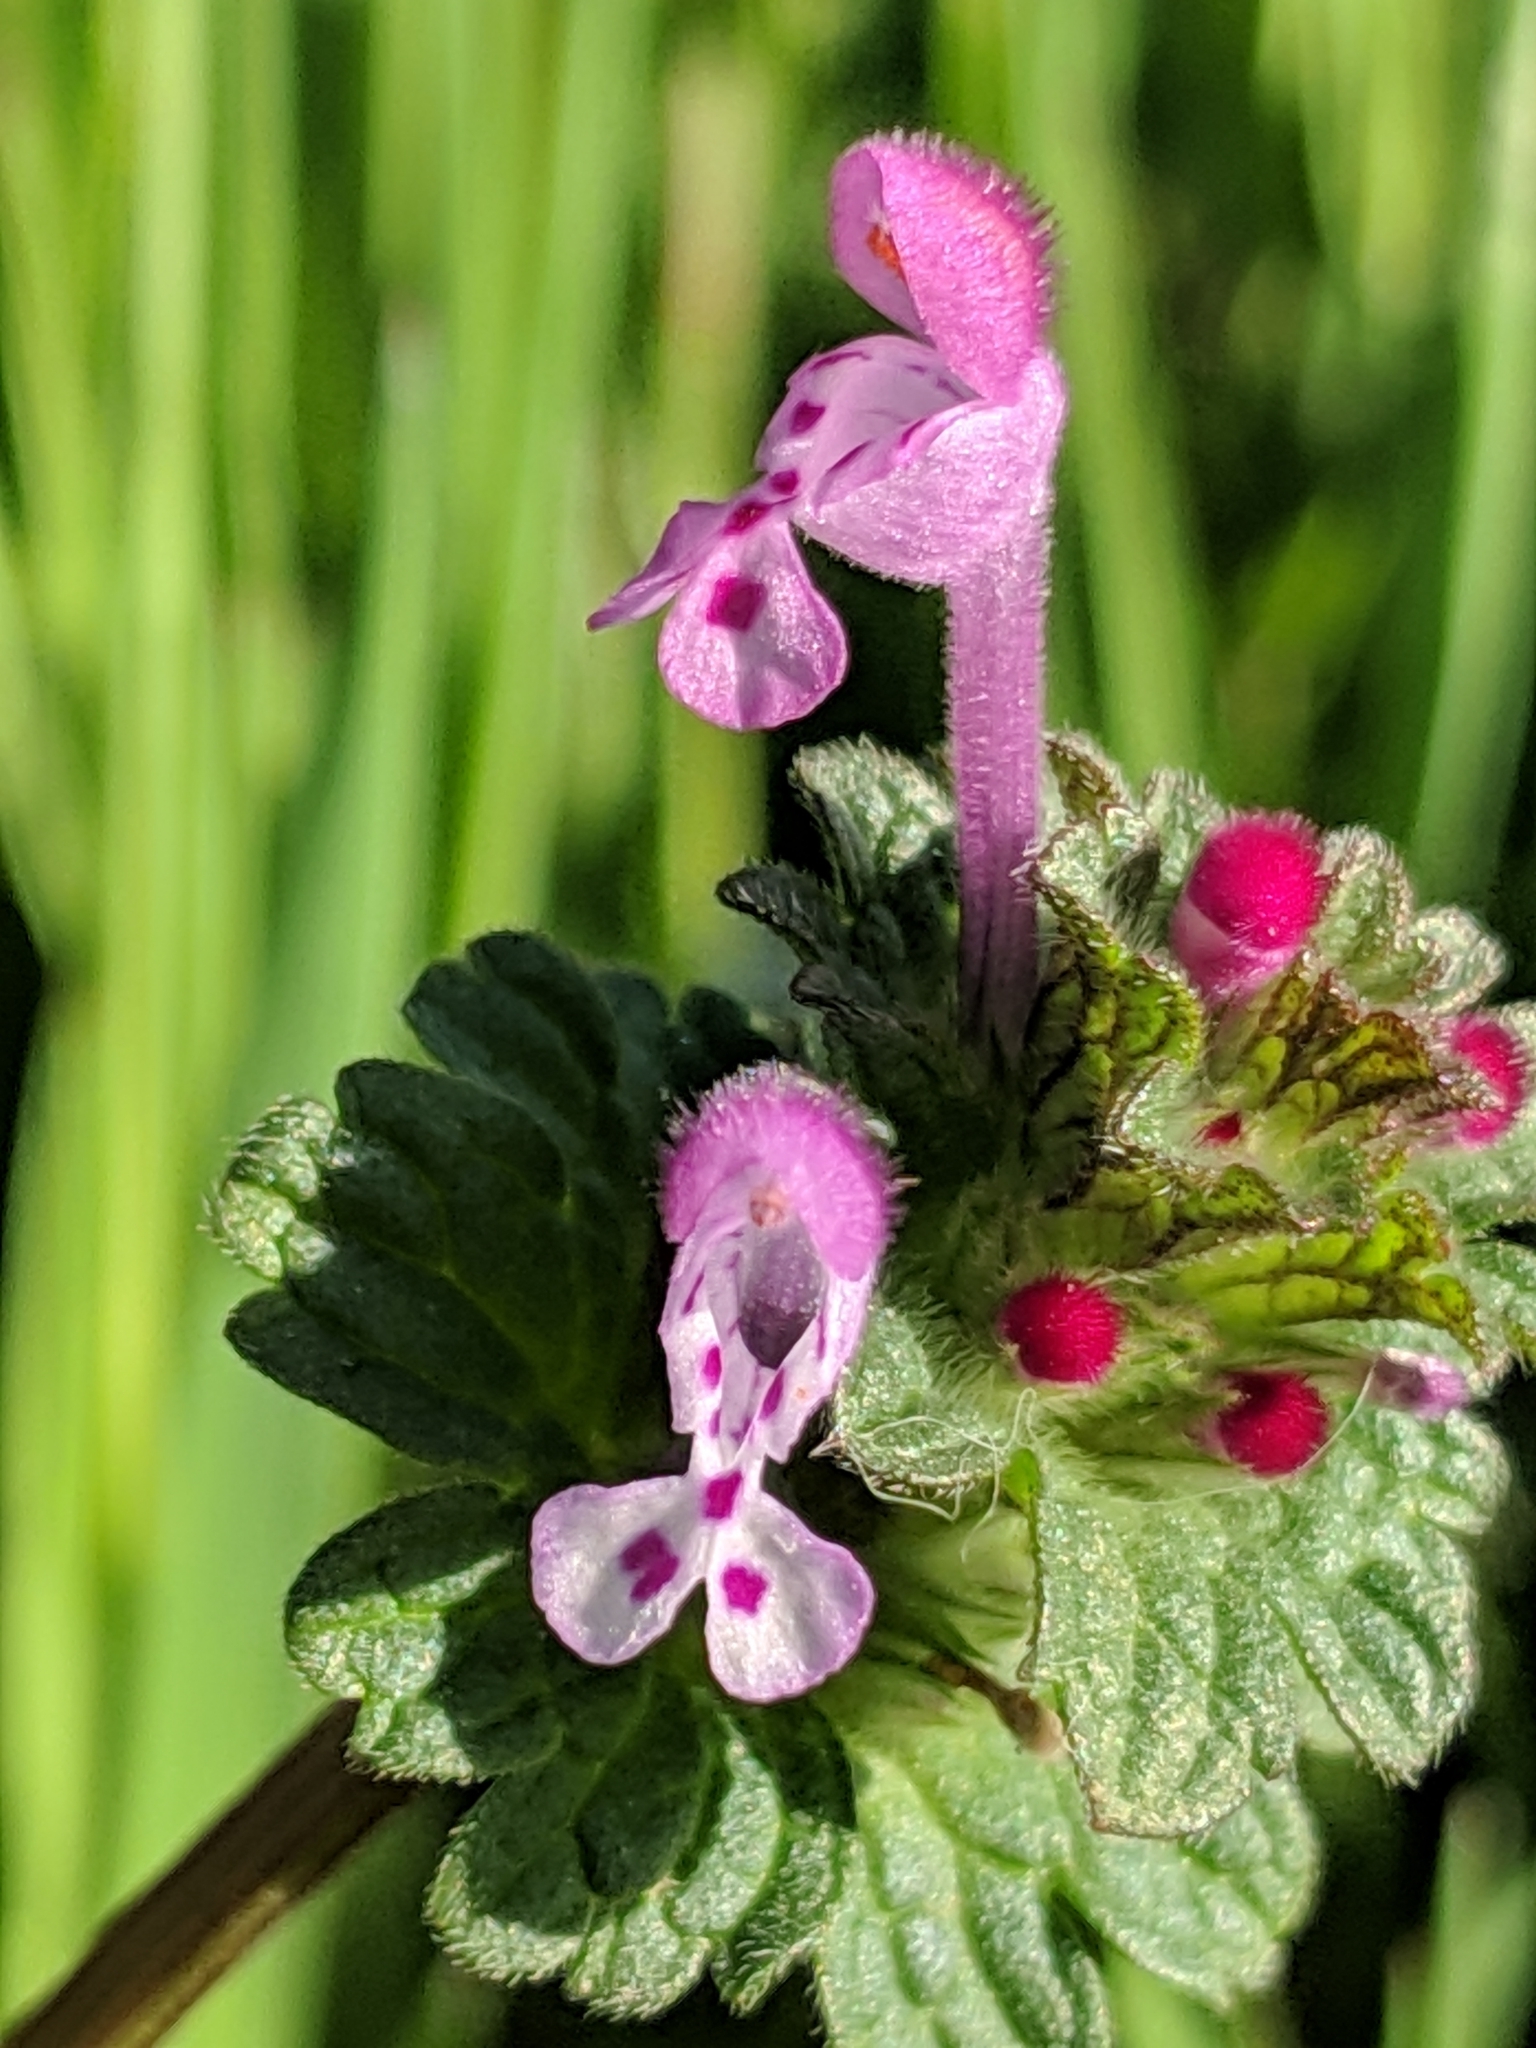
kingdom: Plantae
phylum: Tracheophyta
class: Magnoliopsida
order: Lamiales
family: Lamiaceae
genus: Lamium
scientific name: Lamium amplexicaule
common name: Henbit dead-nettle
